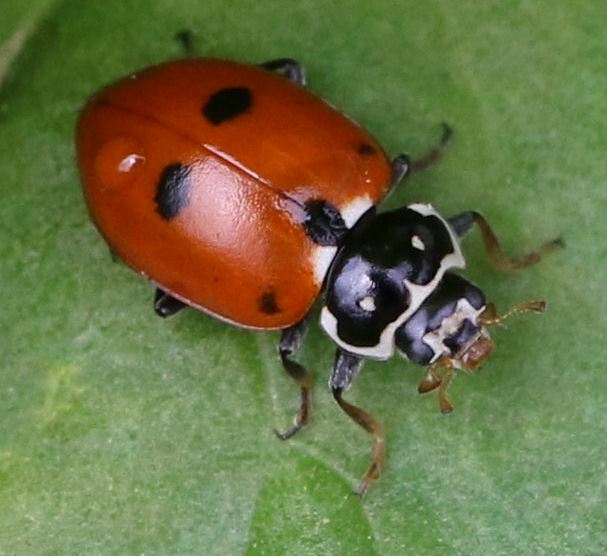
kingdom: Animalia
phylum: Arthropoda
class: Insecta
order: Coleoptera
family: Coccinellidae
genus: Hippodamia
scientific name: Hippodamia variegata
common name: Ladybird beetle
